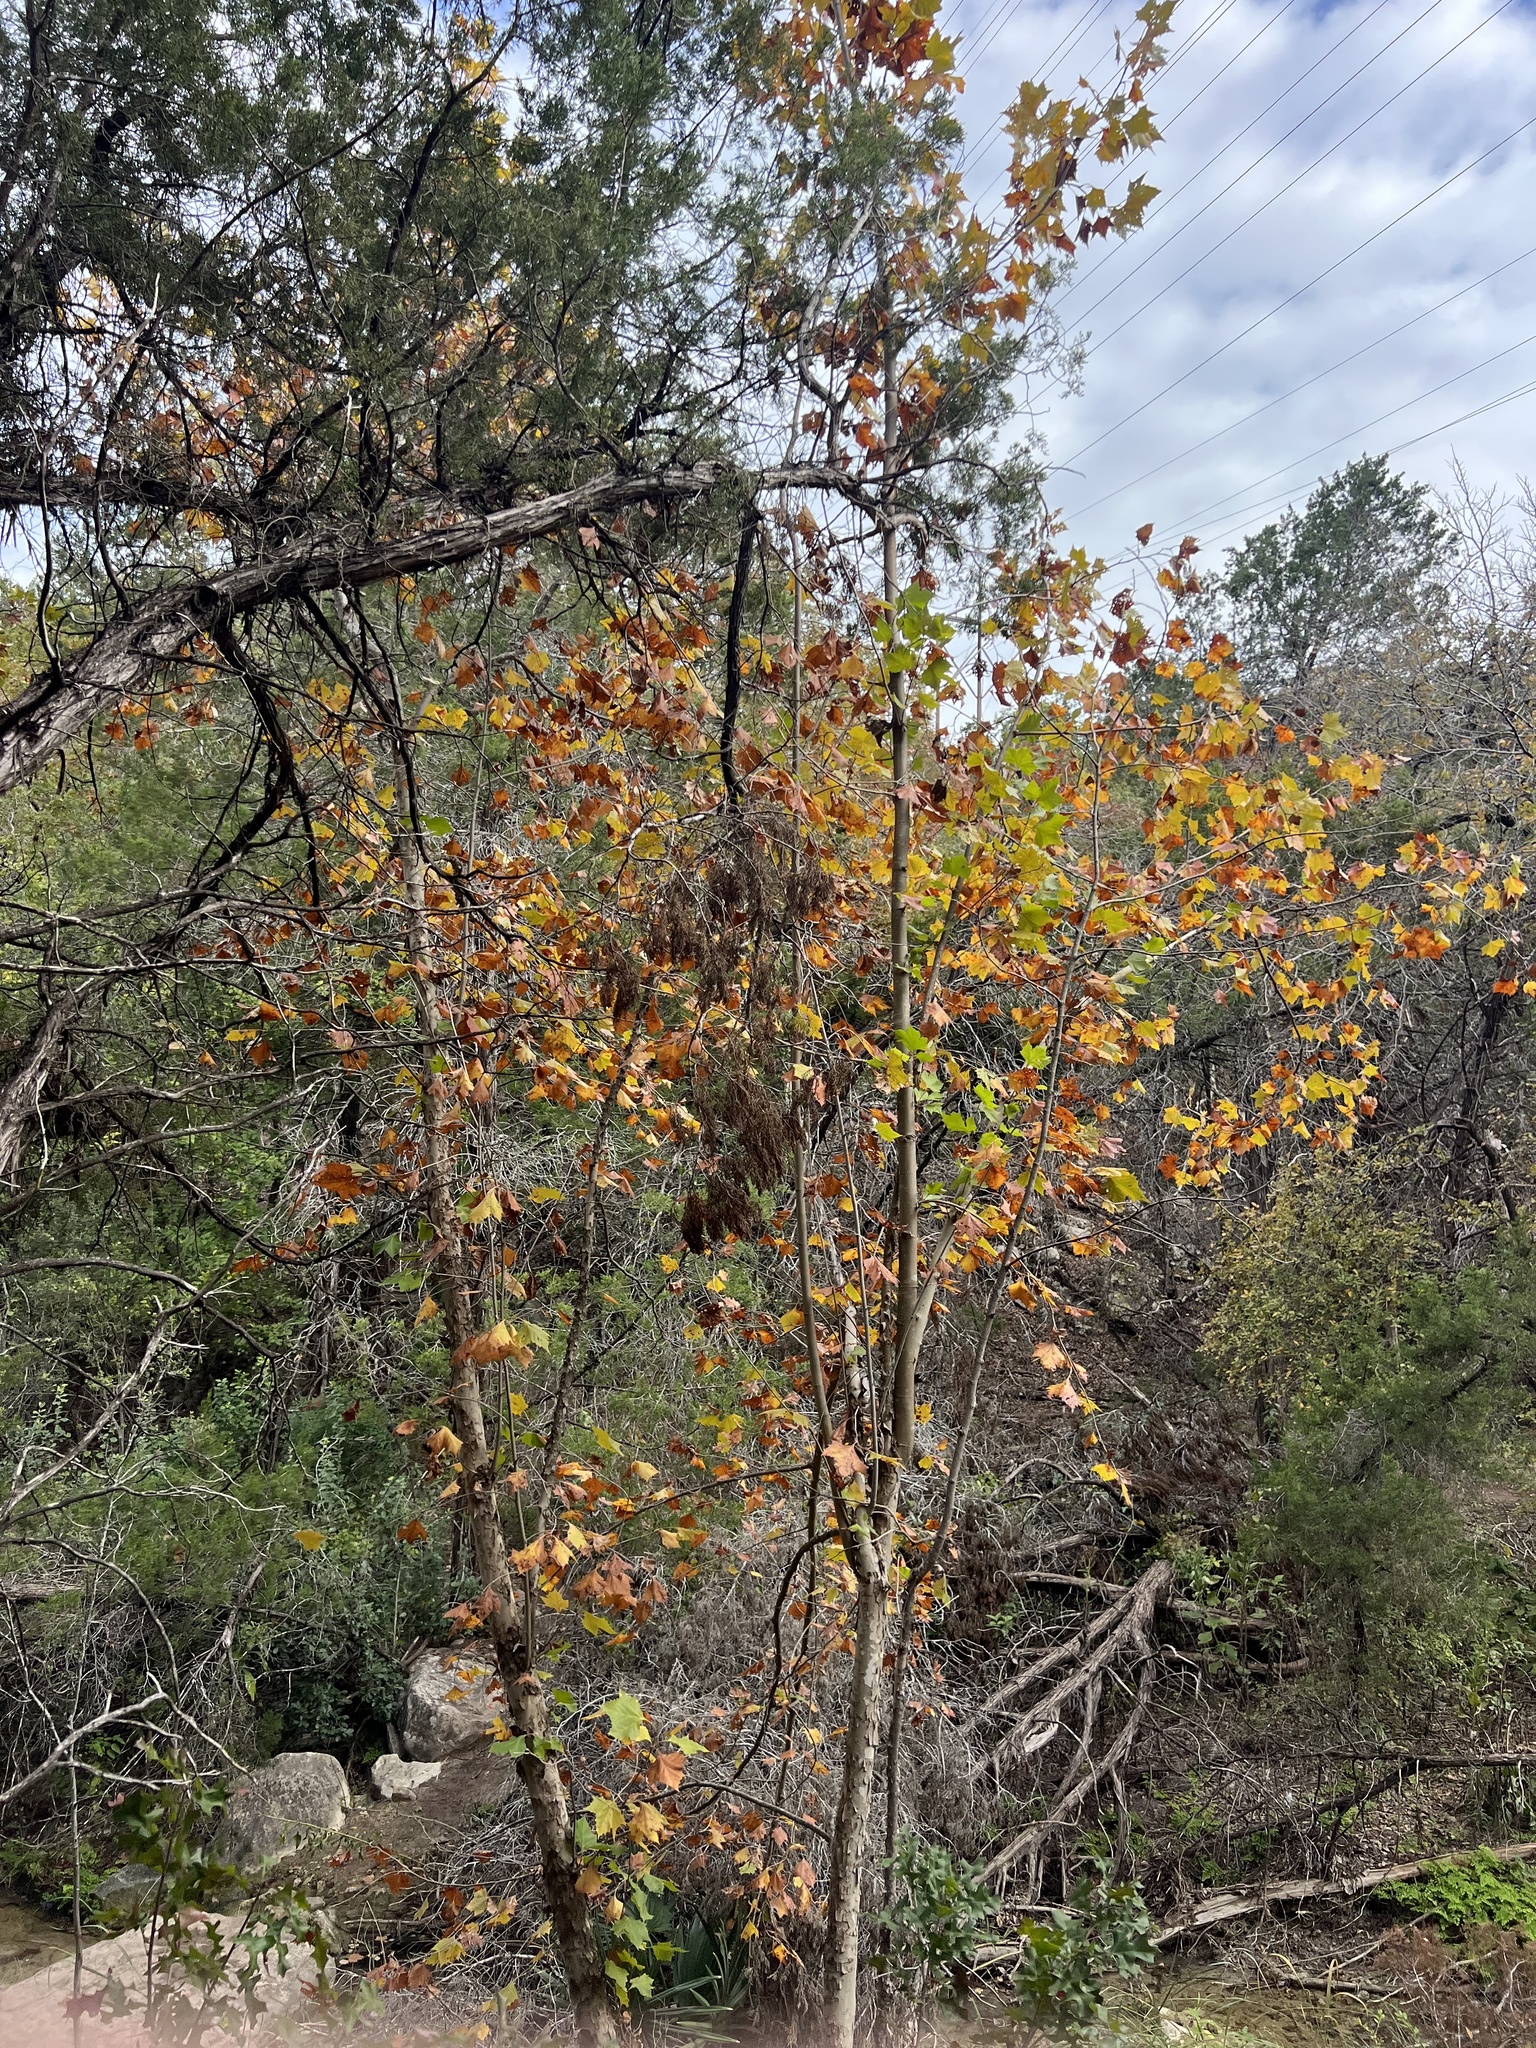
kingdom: Plantae
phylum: Tracheophyta
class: Magnoliopsida
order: Proteales
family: Platanaceae
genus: Platanus
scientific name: Platanus occidentalis
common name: American sycamore
